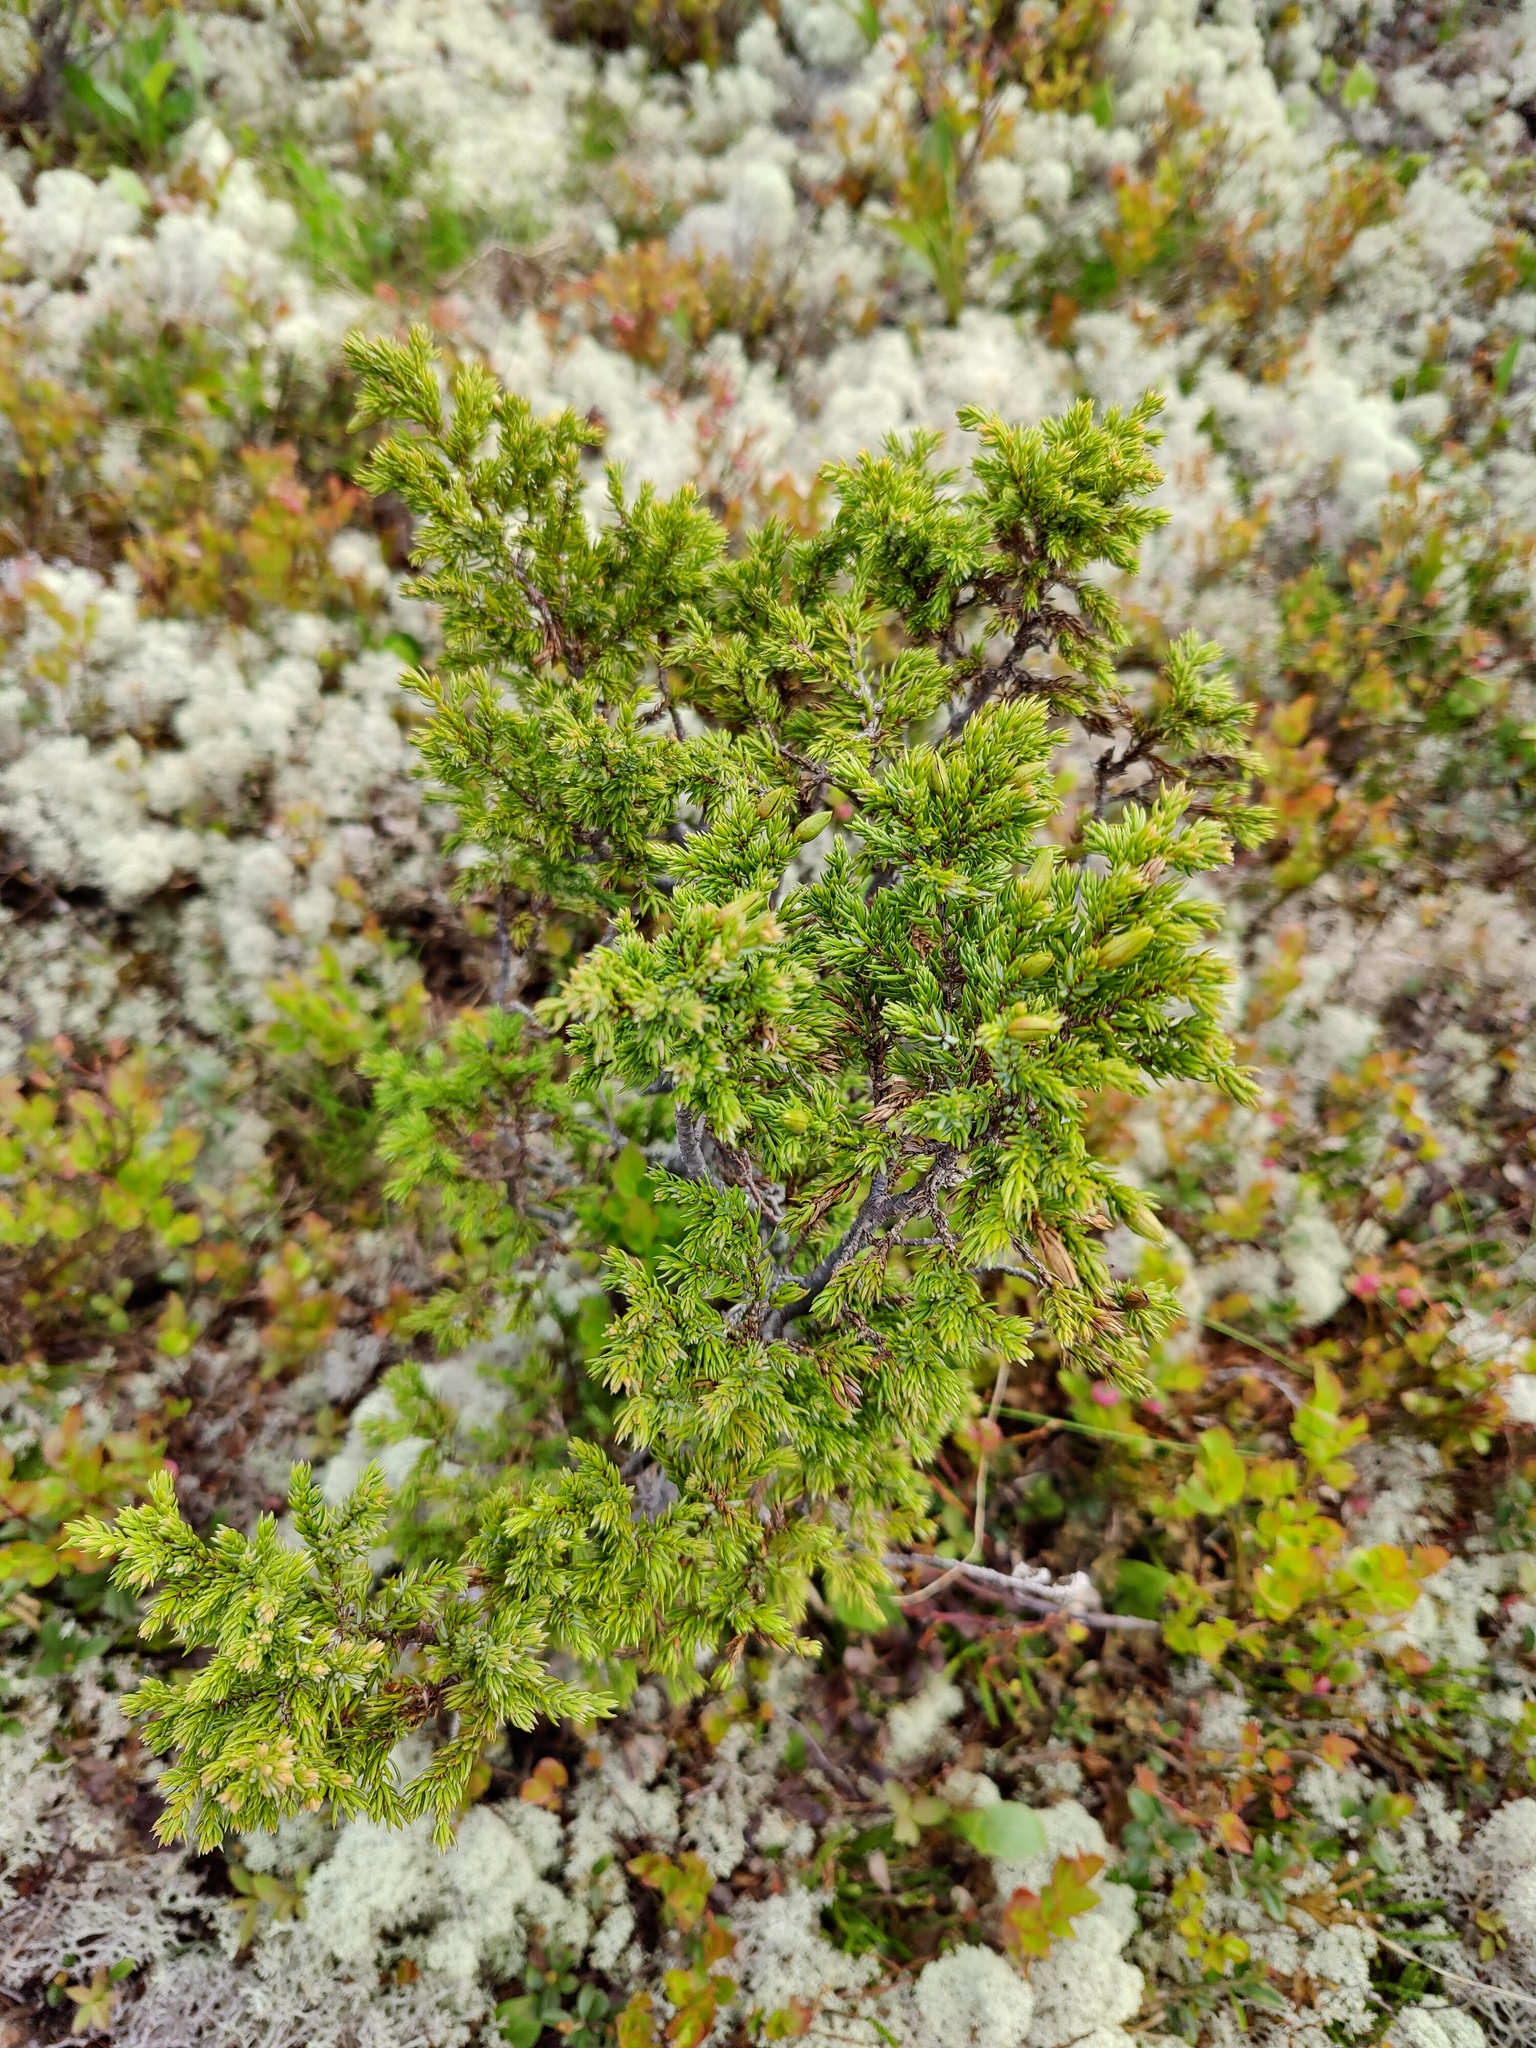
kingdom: Plantae
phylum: Tracheophyta
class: Pinopsida
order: Pinales
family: Cupressaceae
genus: Juniperus
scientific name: Juniperus communis
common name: Common juniper
